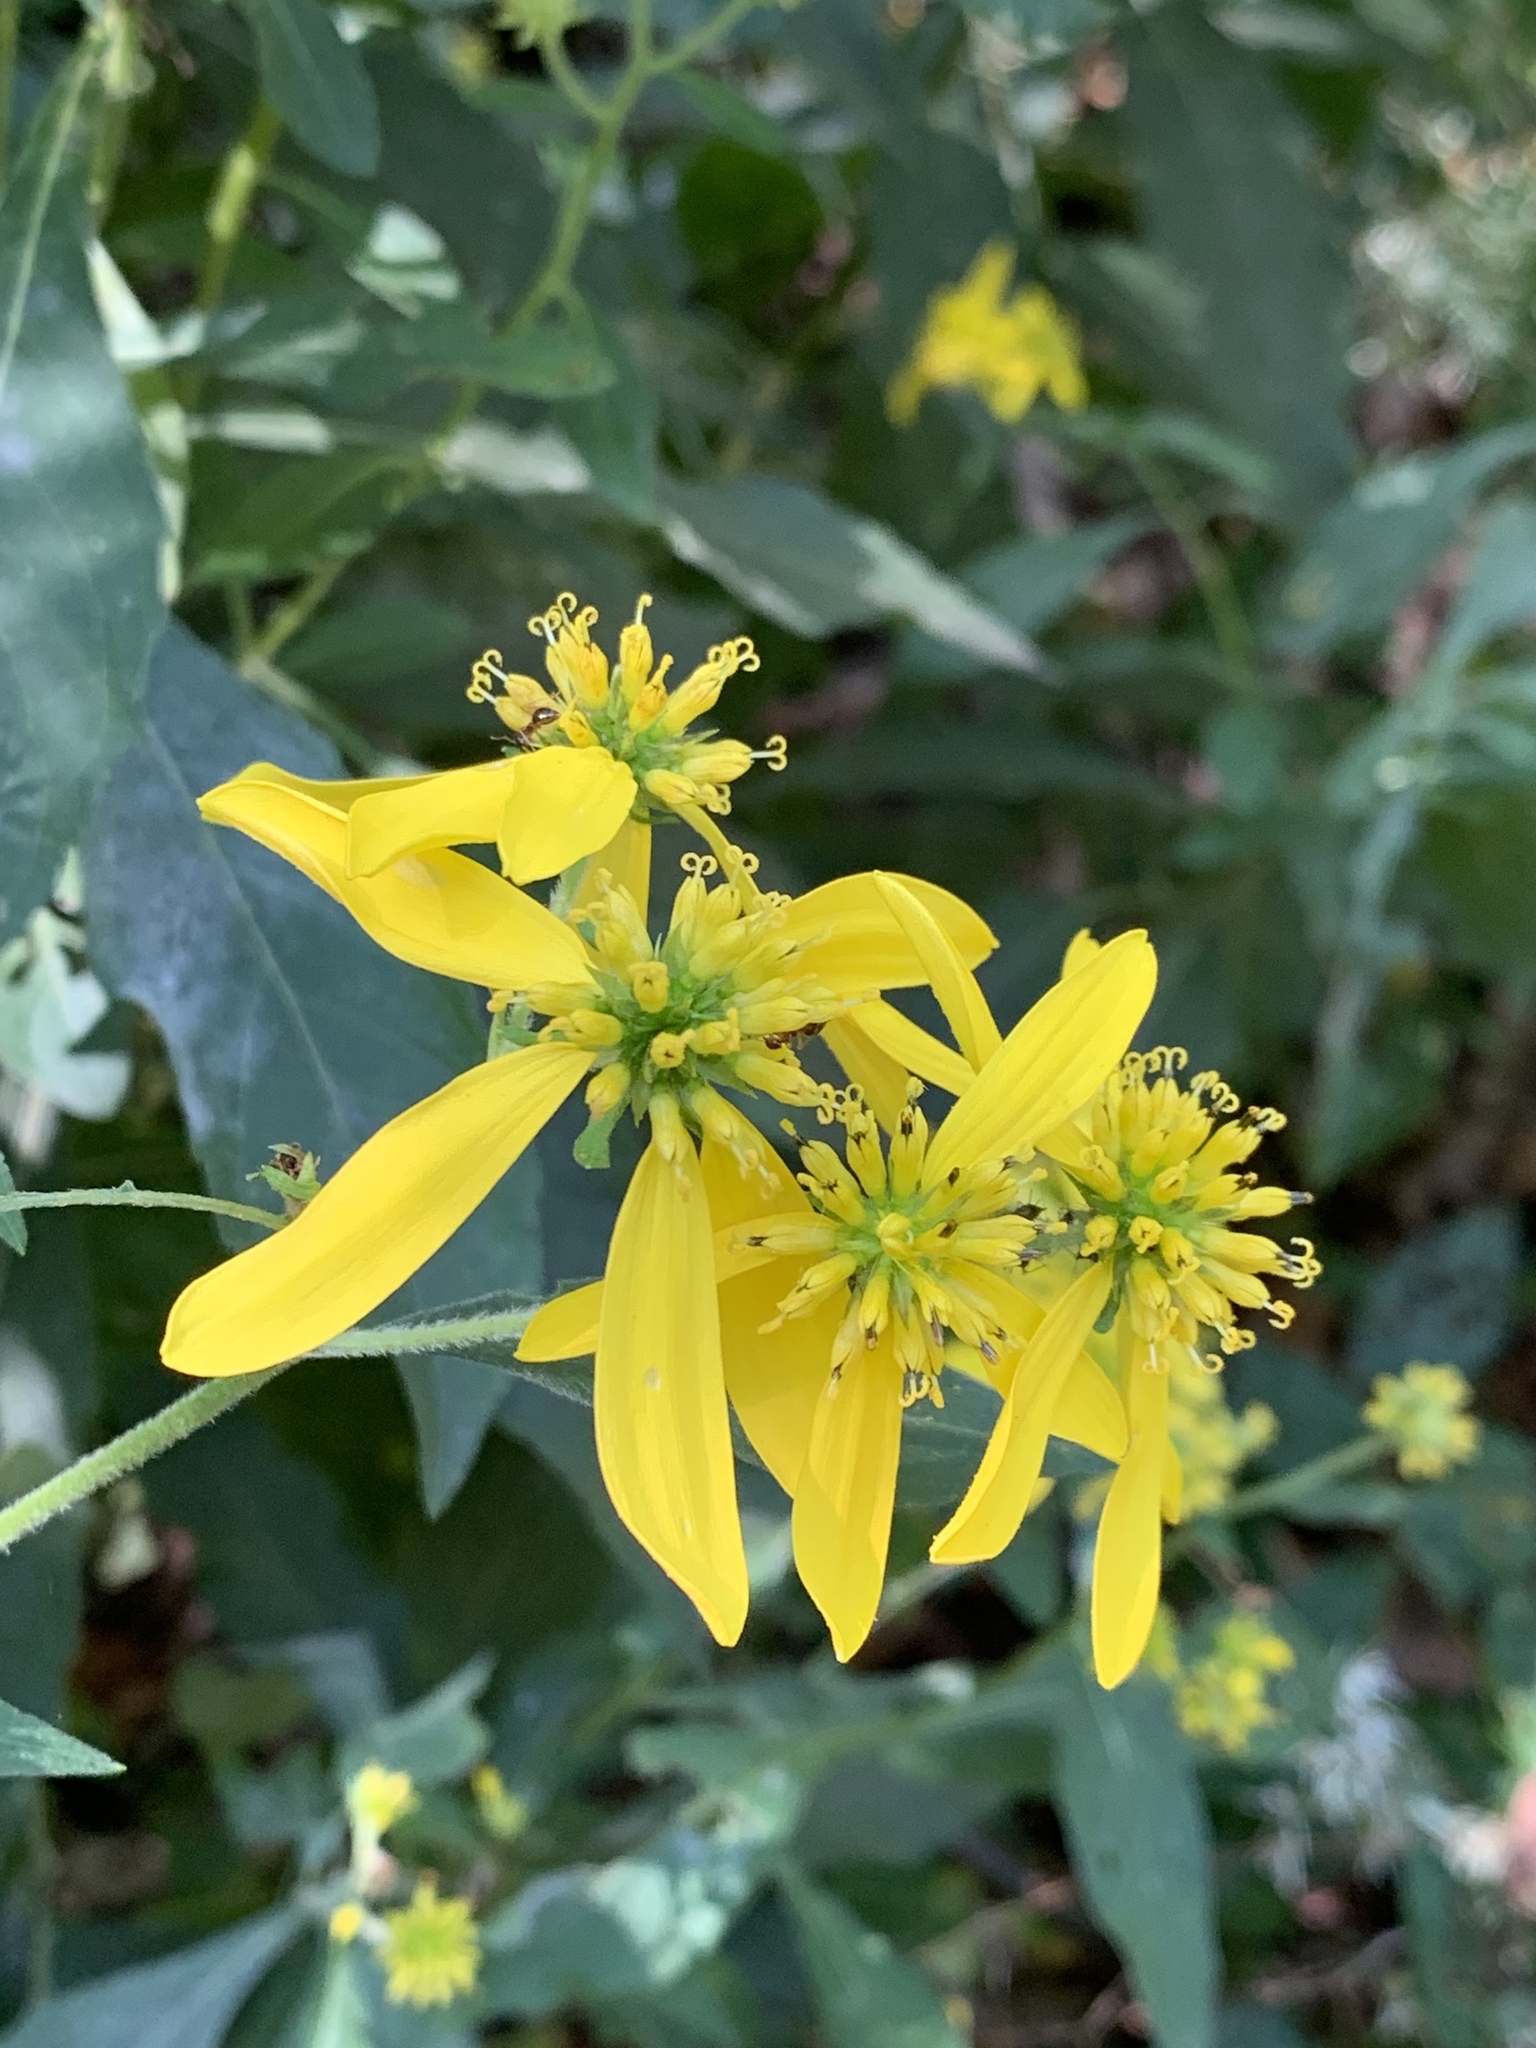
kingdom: Plantae
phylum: Tracheophyta
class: Magnoliopsida
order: Asterales
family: Asteraceae
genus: Verbesina
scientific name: Verbesina alternifolia
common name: Wingstem
